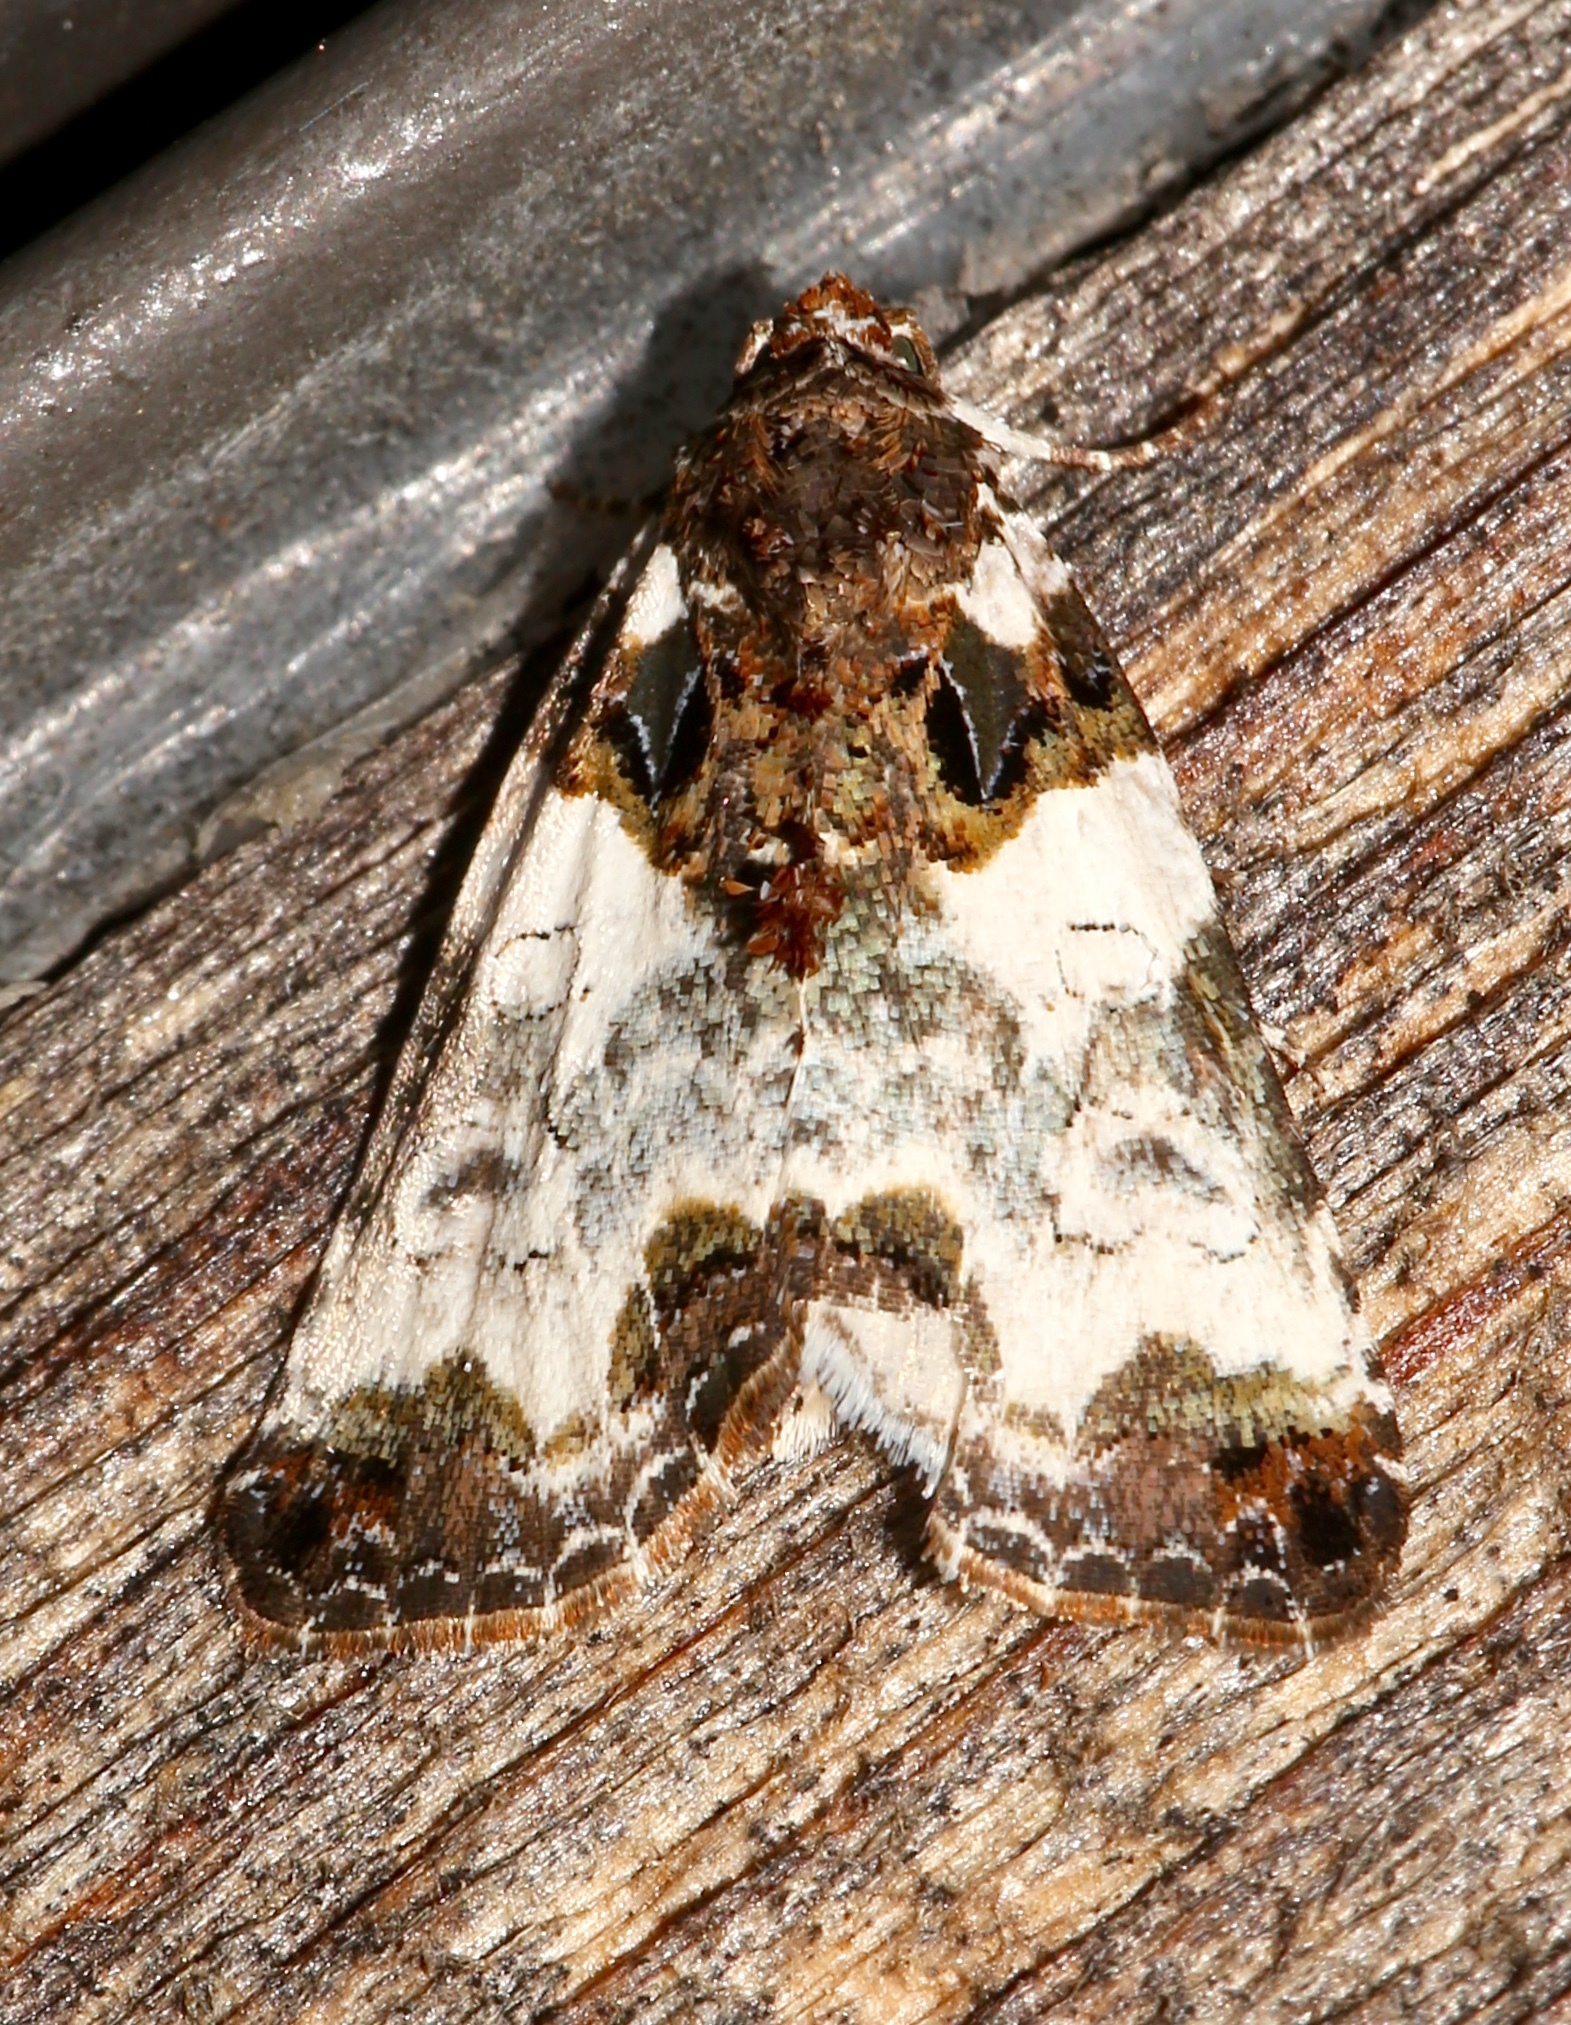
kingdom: Animalia
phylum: Arthropoda
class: Insecta
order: Lepidoptera
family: Noctuidae
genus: Cerma
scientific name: Cerma cerintha
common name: Tufted bird-dropping moth
